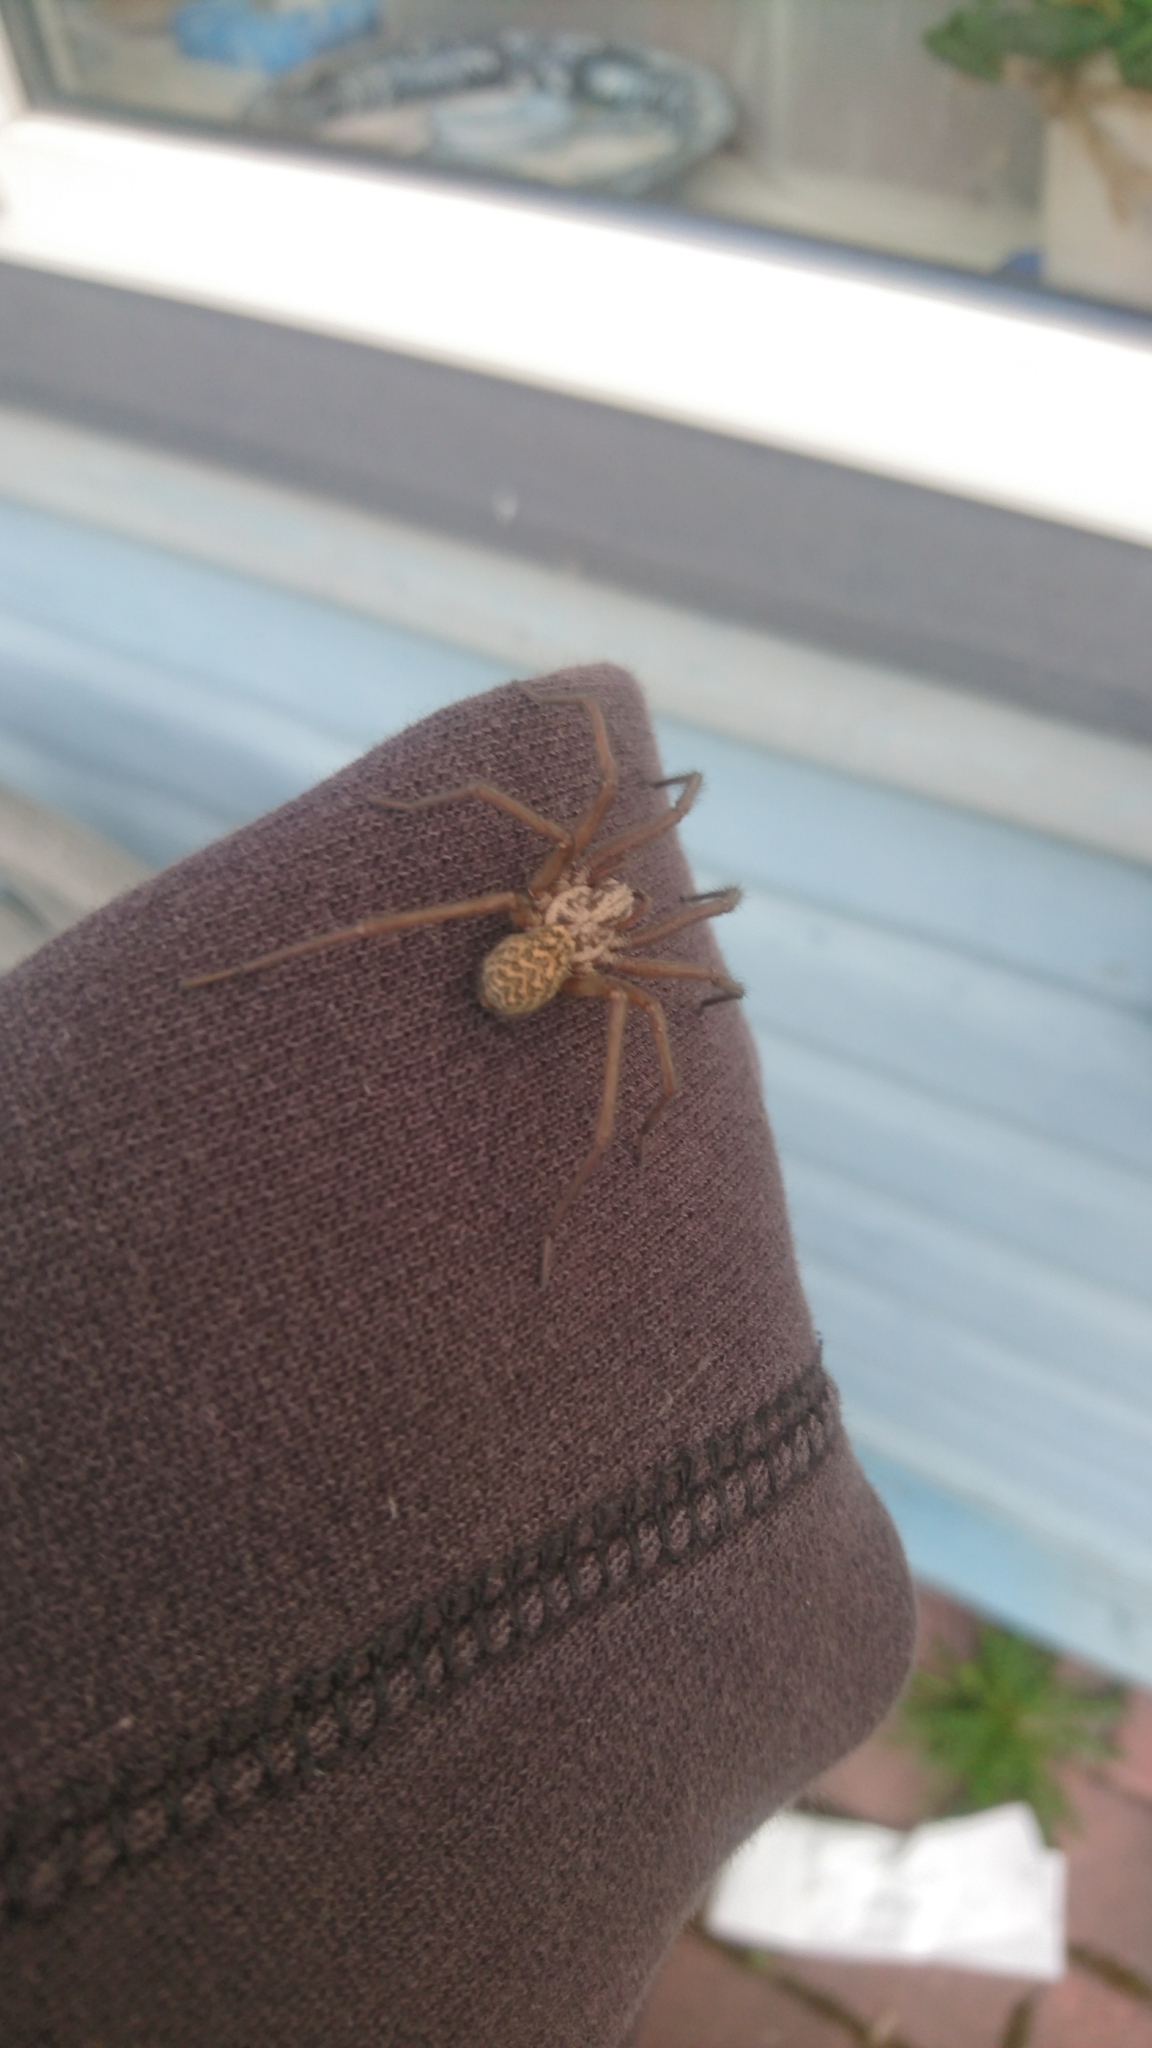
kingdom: Animalia
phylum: Arthropoda
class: Arachnida
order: Araneae
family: Agelenidae
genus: Tegenaria
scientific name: Tegenaria domestica
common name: Barn funnel weaver
